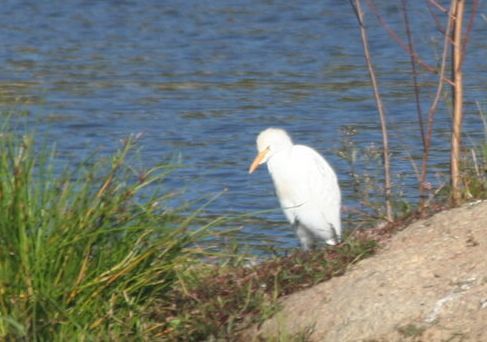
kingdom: Animalia
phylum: Chordata
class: Aves
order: Pelecaniformes
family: Ardeidae
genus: Bubulcus
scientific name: Bubulcus ibis
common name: Cattle egret
